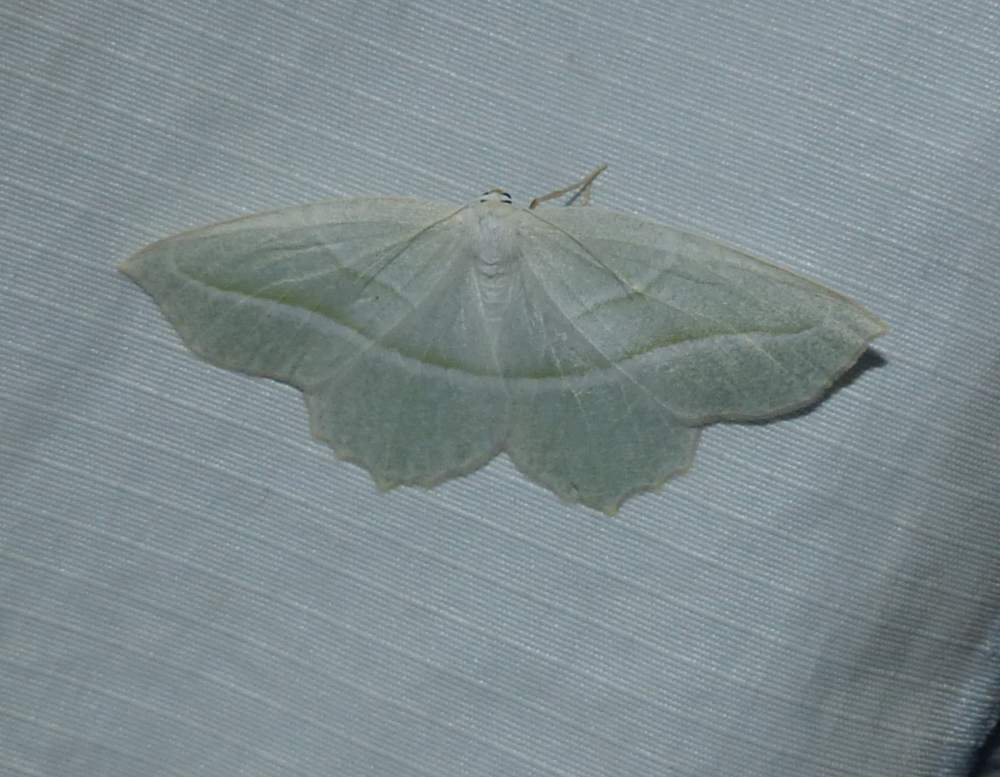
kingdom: Animalia
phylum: Arthropoda
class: Insecta
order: Lepidoptera
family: Geometridae
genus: Campaea
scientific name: Campaea perlata
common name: Fringed looper
